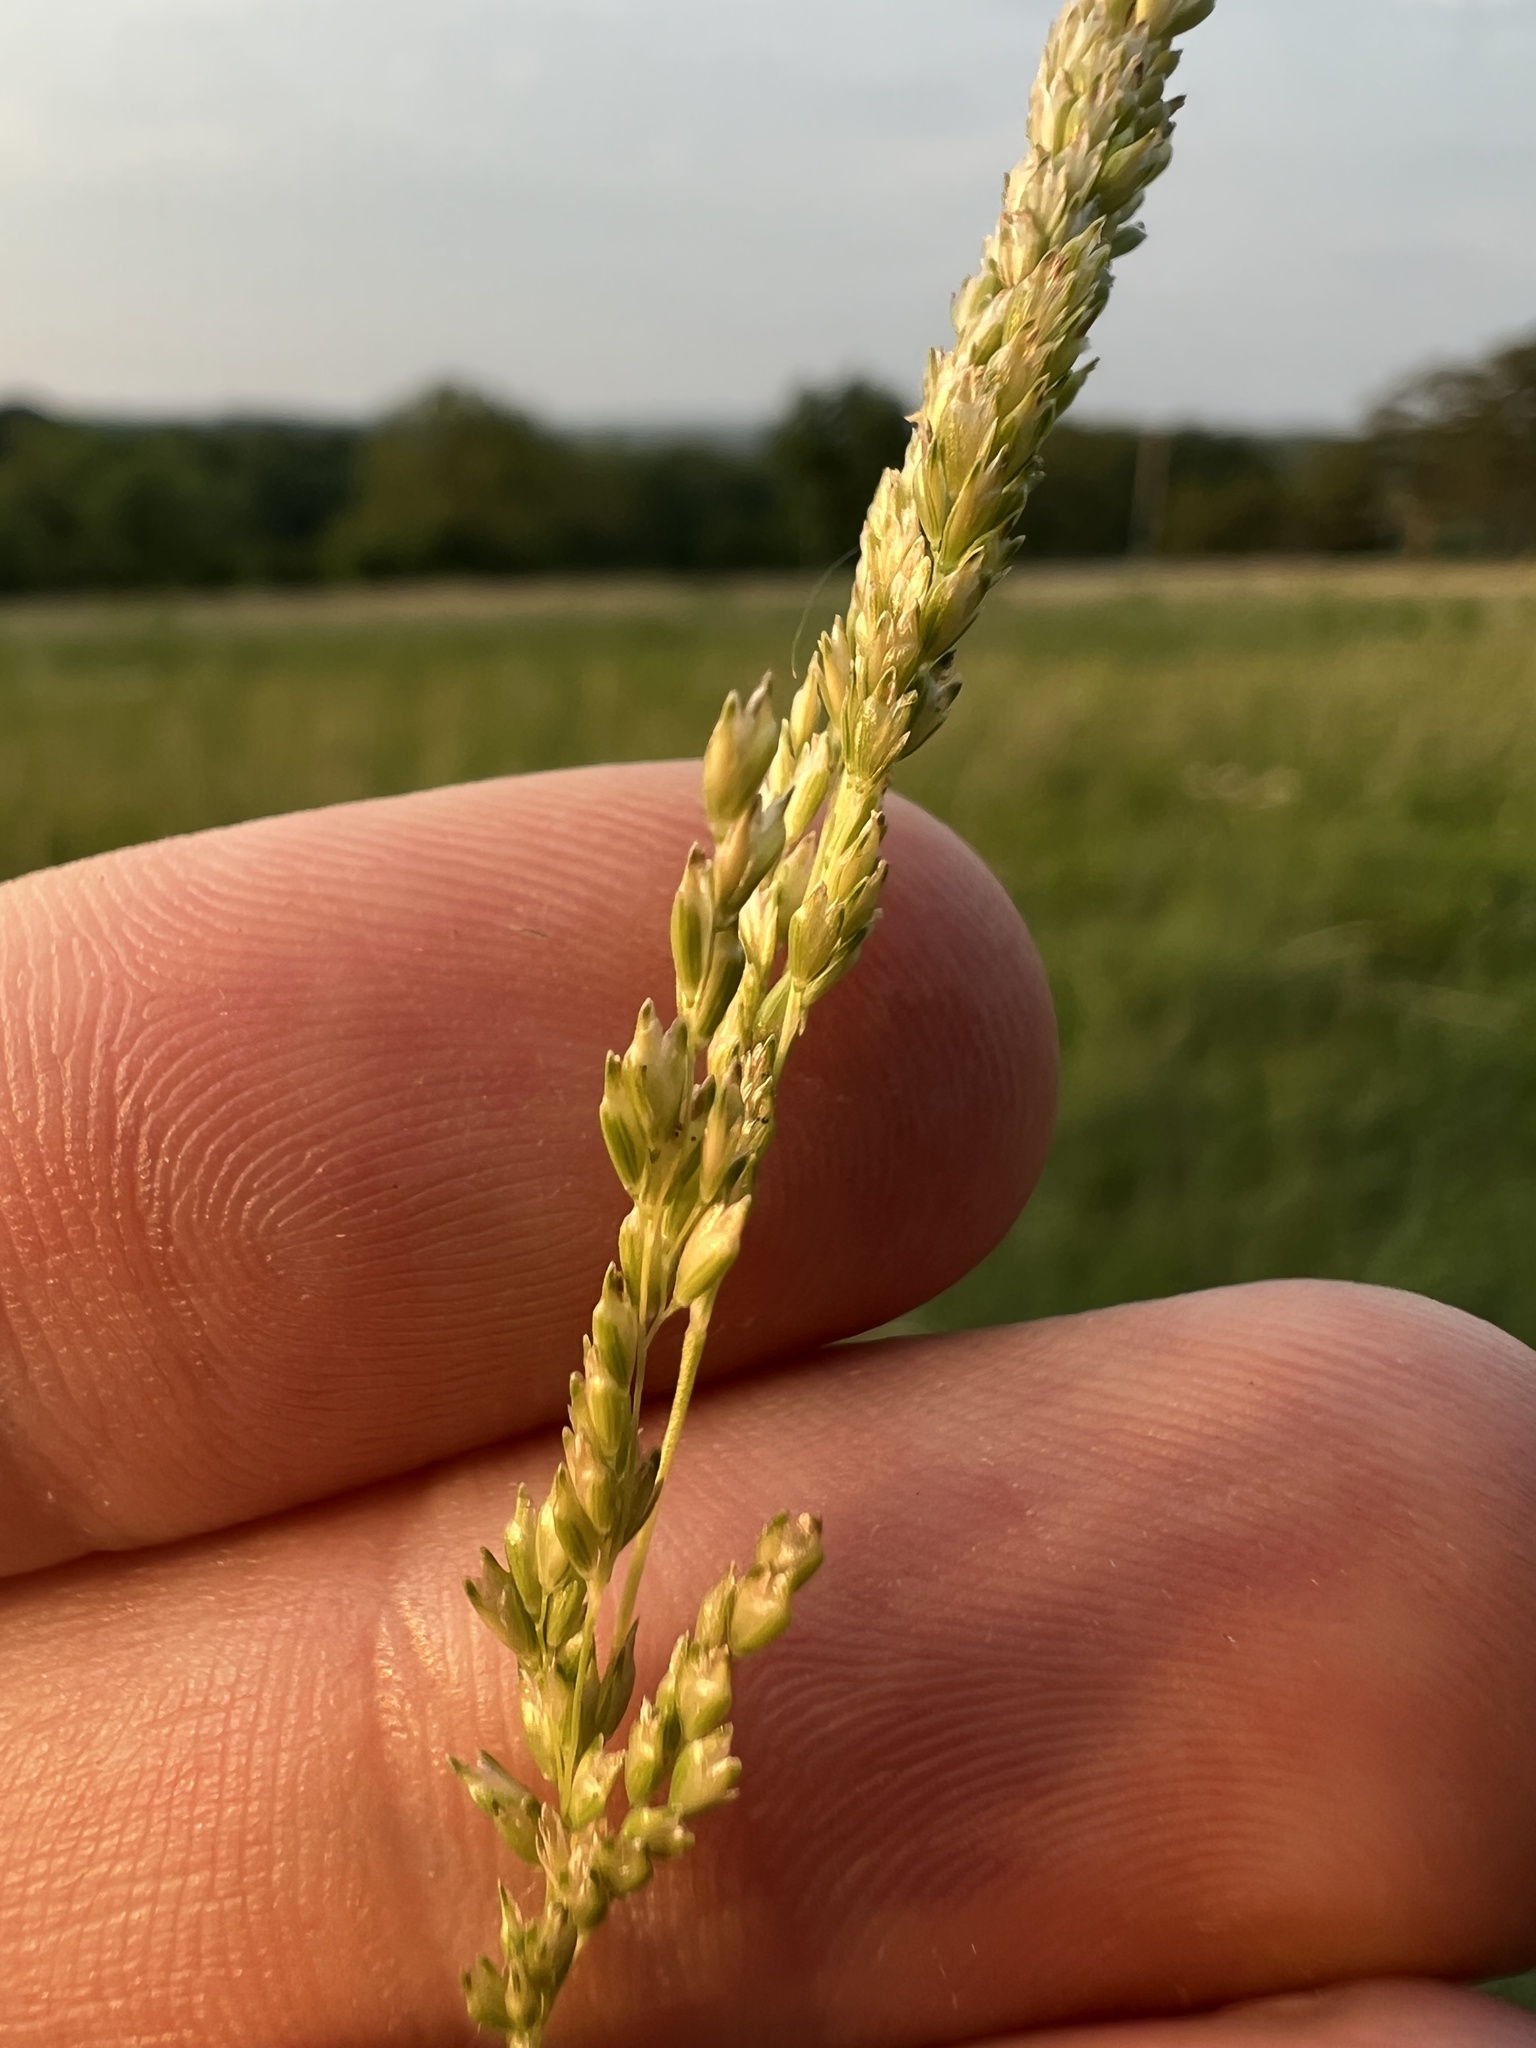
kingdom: Plantae
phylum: Tracheophyta
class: Liliopsida
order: Poales
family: Poaceae
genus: Sphenopholis
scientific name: Sphenopholis obtusata
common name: Prairie grass
